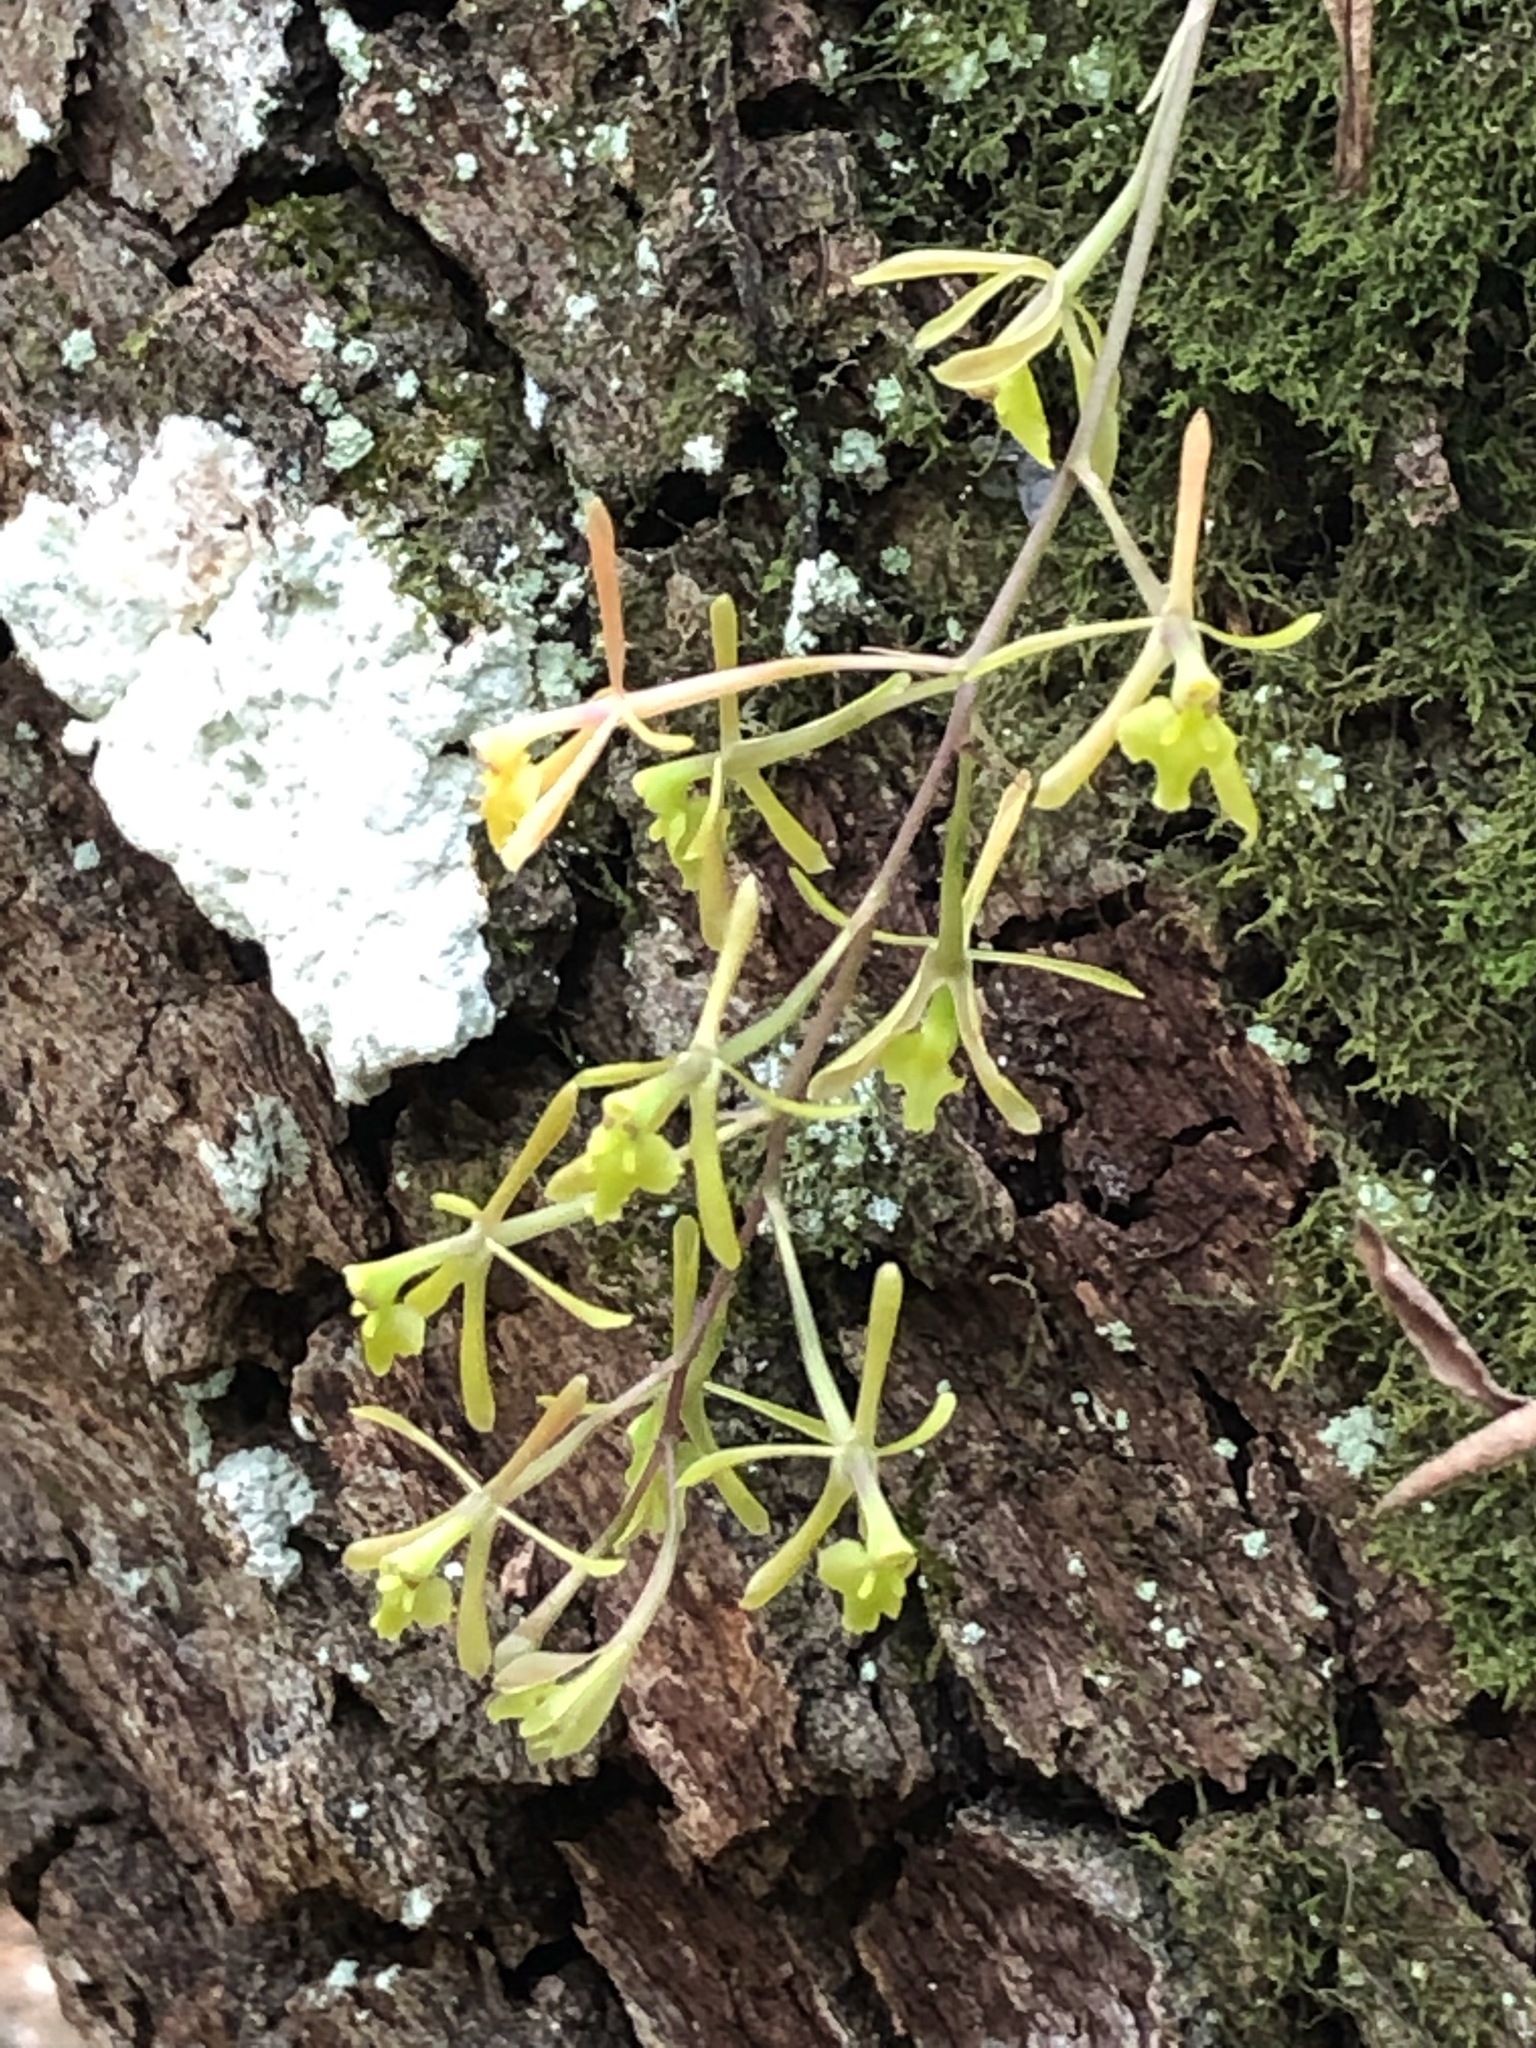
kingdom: Plantae
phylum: Tracheophyta
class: Liliopsida
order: Asparagales
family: Orchidaceae
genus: Epidendrum
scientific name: Epidendrum conopseum
